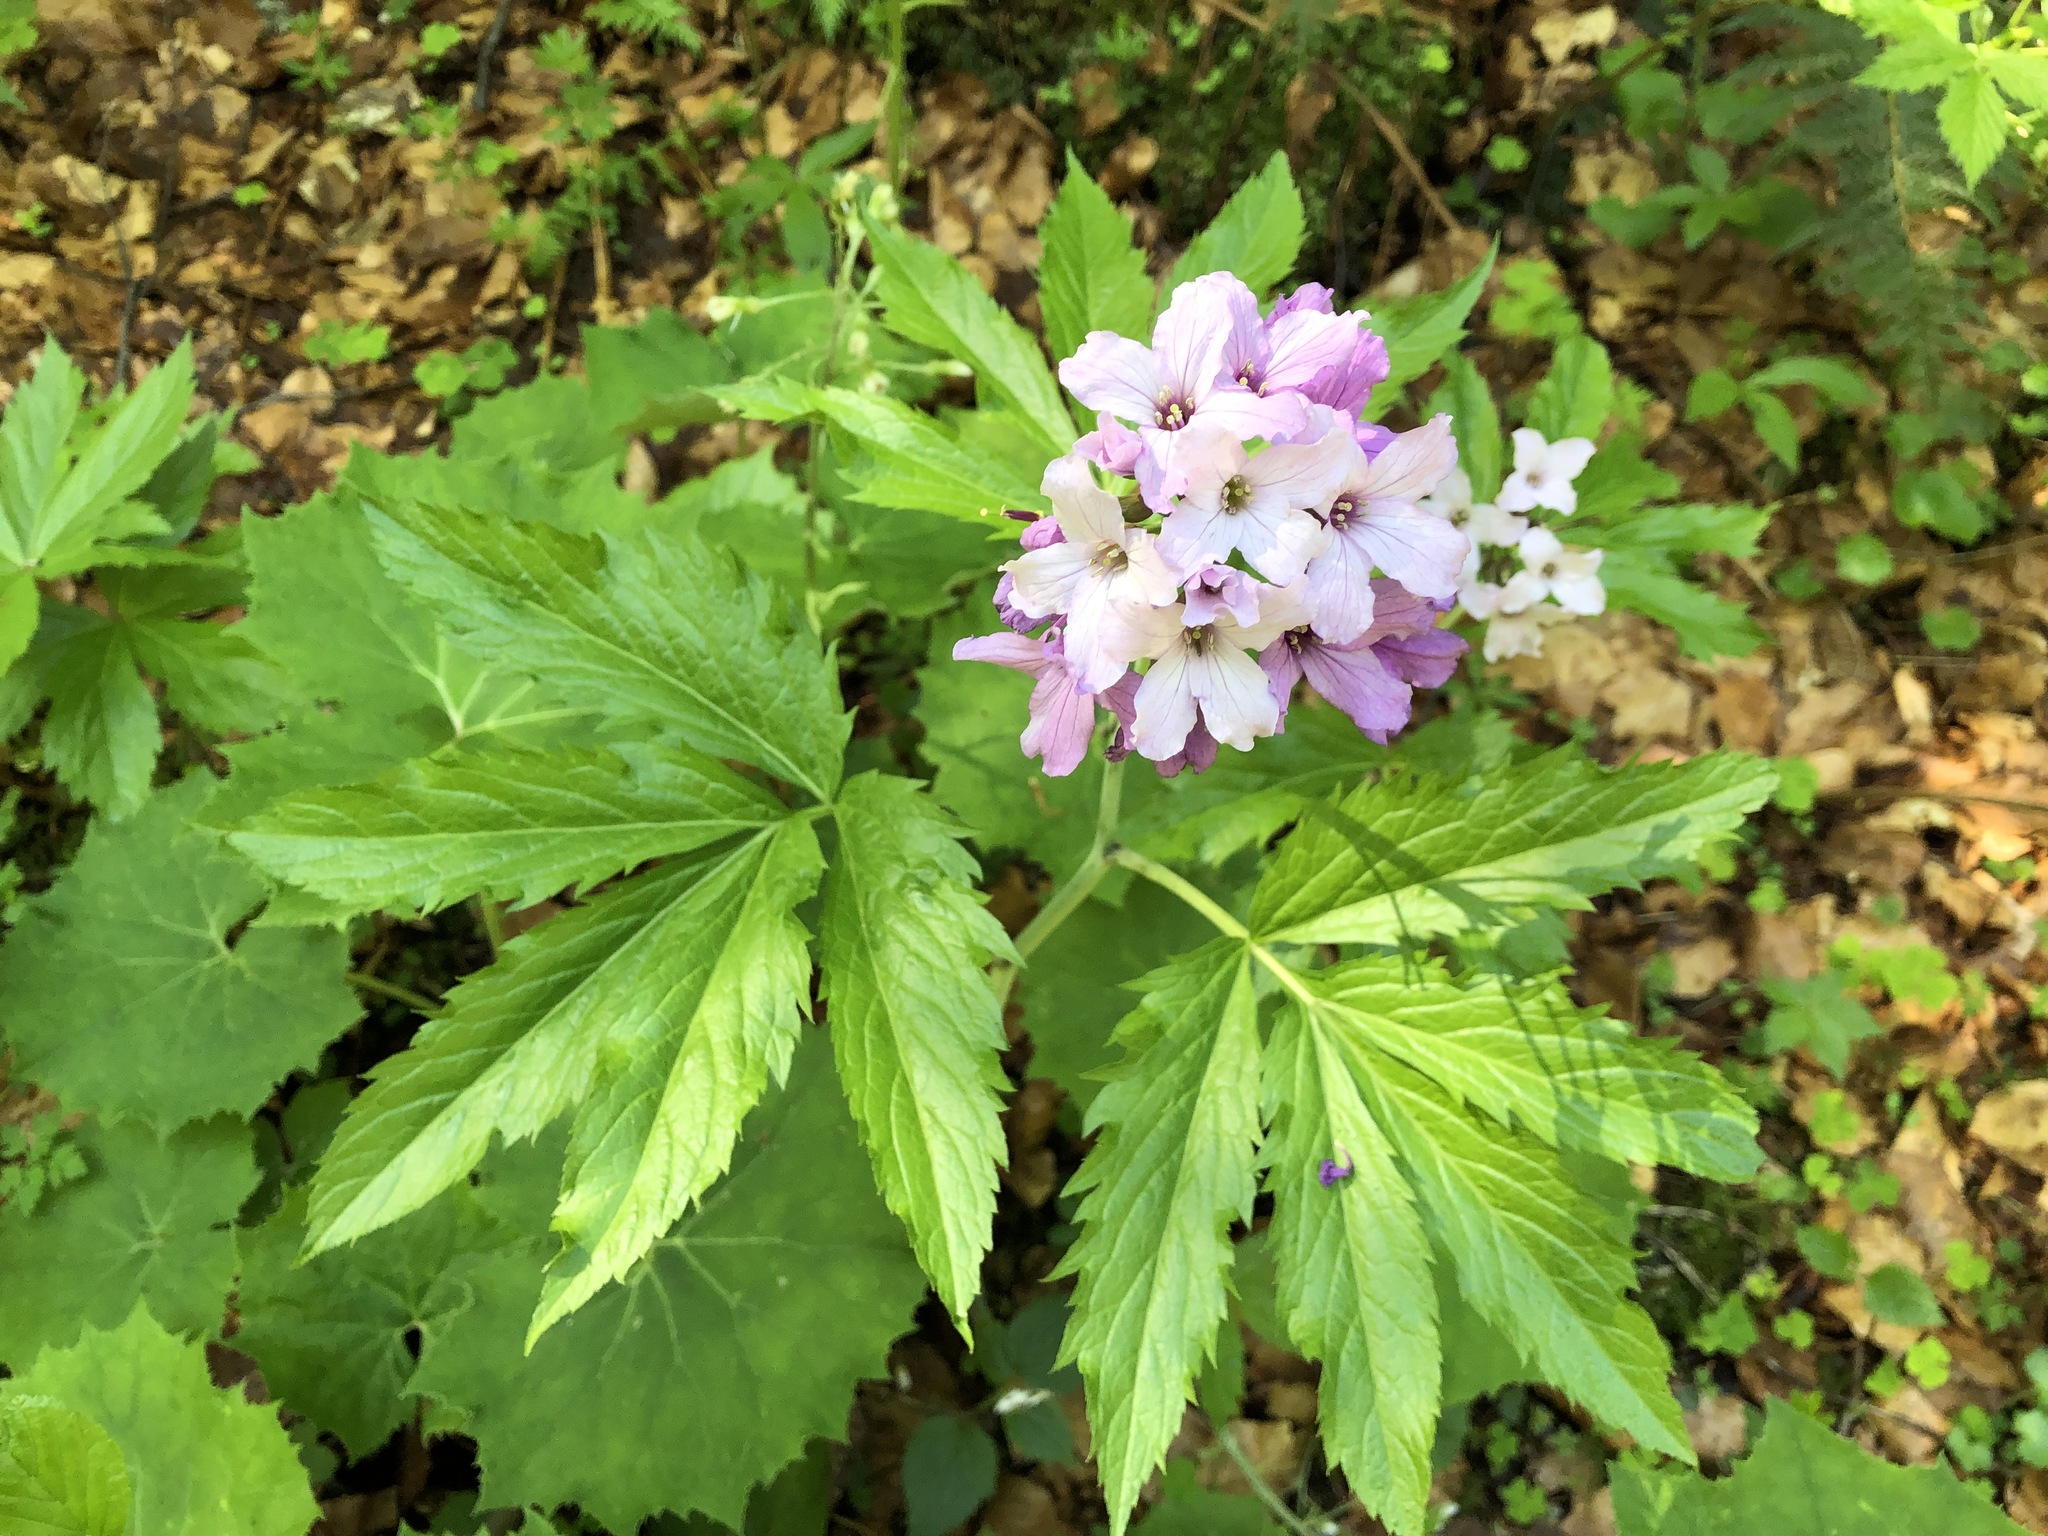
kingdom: Plantae
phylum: Tracheophyta
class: Magnoliopsida
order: Brassicales
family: Brassicaceae
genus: Cardamine
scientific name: Cardamine digenea
